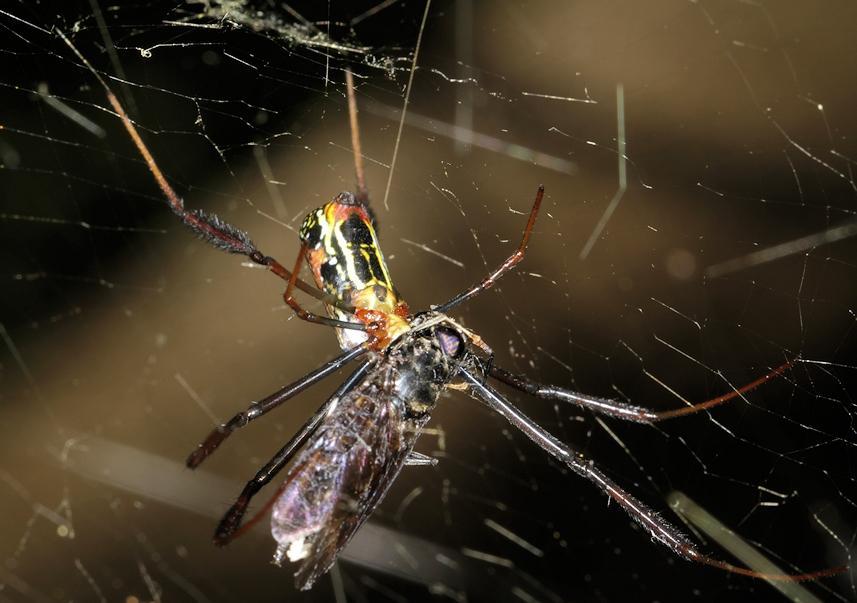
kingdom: Animalia
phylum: Arthropoda
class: Arachnida
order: Araneae
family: Araneidae
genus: Trichonephila
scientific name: Trichonephila fenestrata
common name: Hairy golden orb weaver
